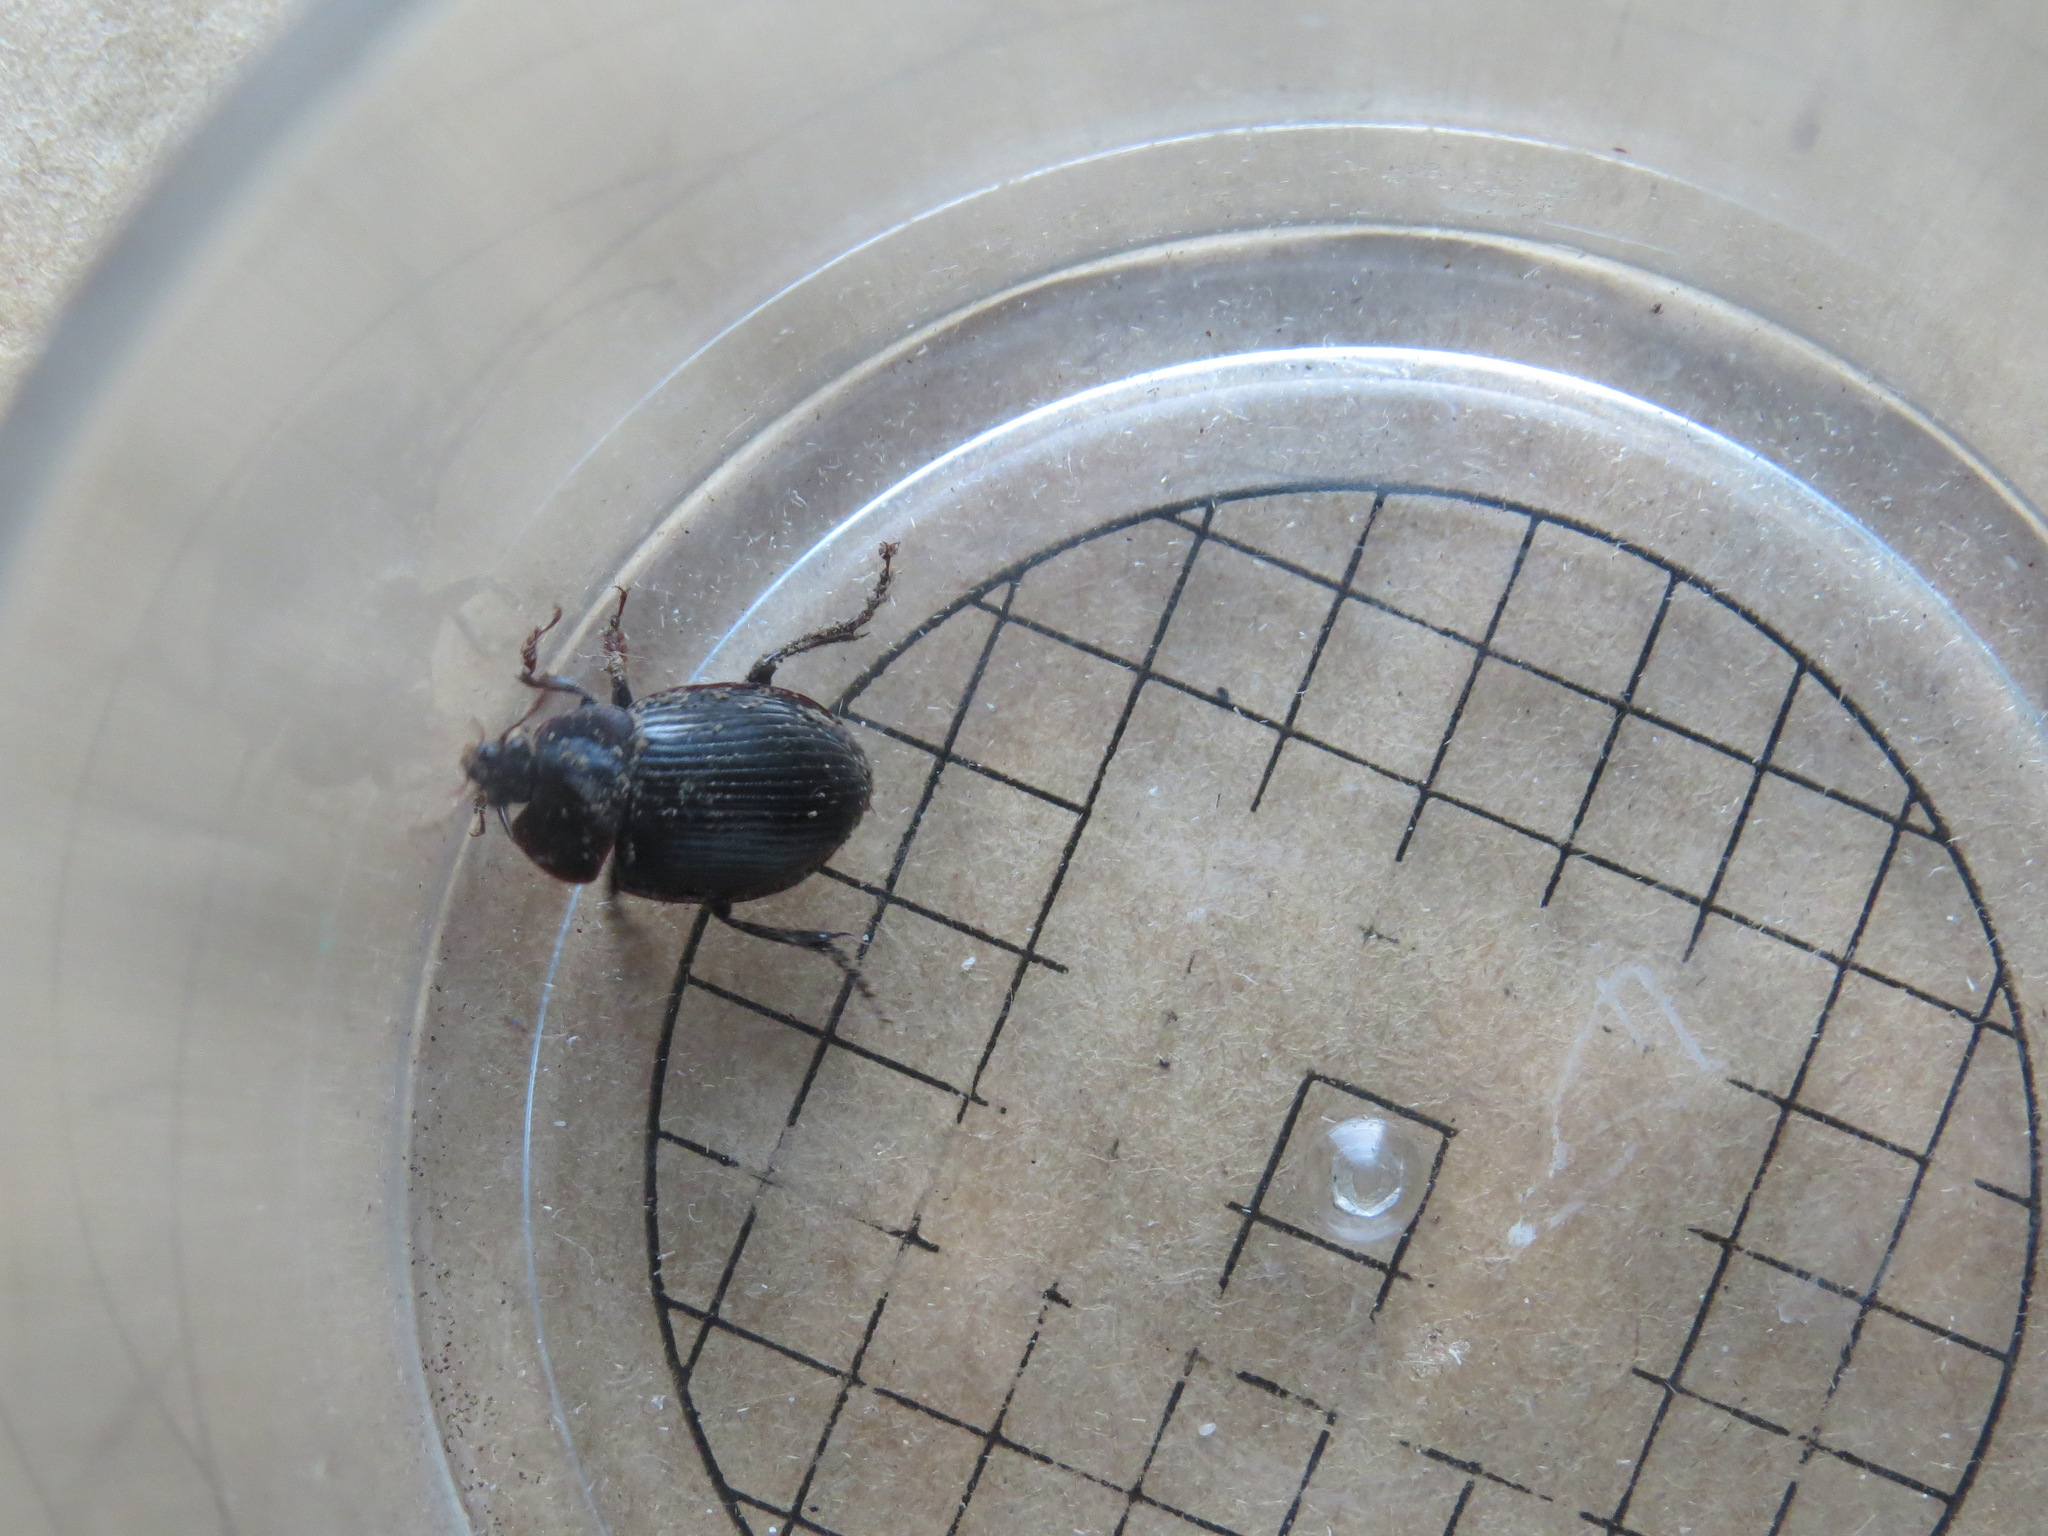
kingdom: Animalia
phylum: Arthropoda
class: Insecta
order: Coleoptera
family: Agyrtidae
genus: Necrophilus
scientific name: Necrophilus hydrophiloides
